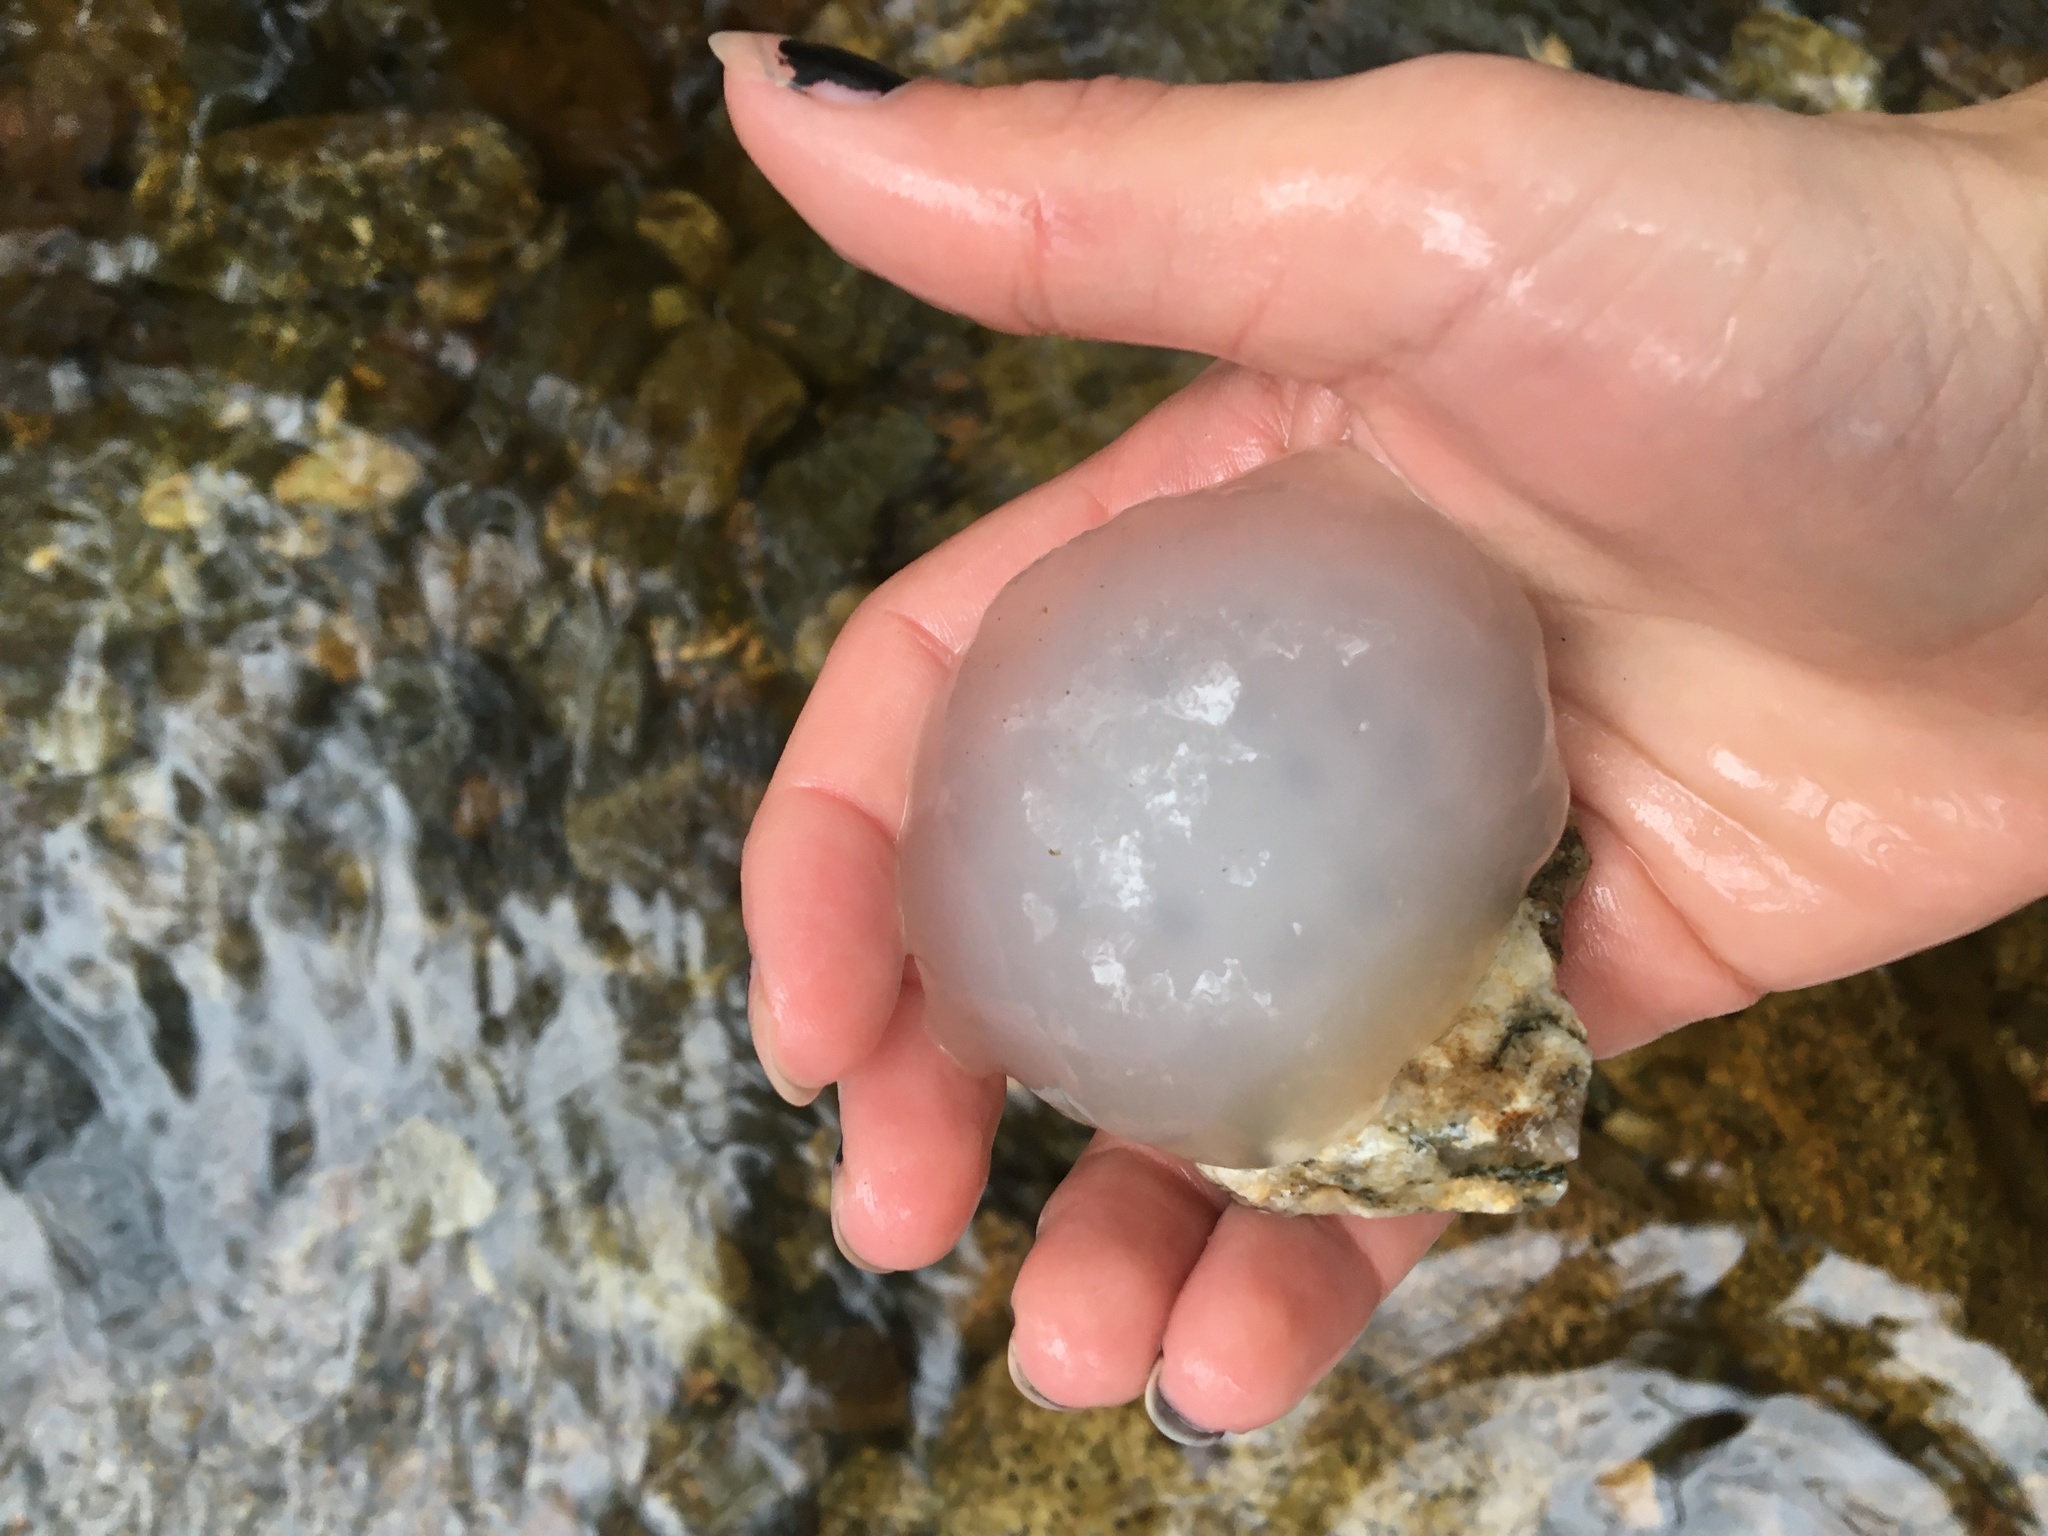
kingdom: Animalia
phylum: Chordata
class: Amphibia
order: Caudata
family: Ambystomatidae
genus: Ambystoma
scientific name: Ambystoma maculatum
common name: Spotted salamander
